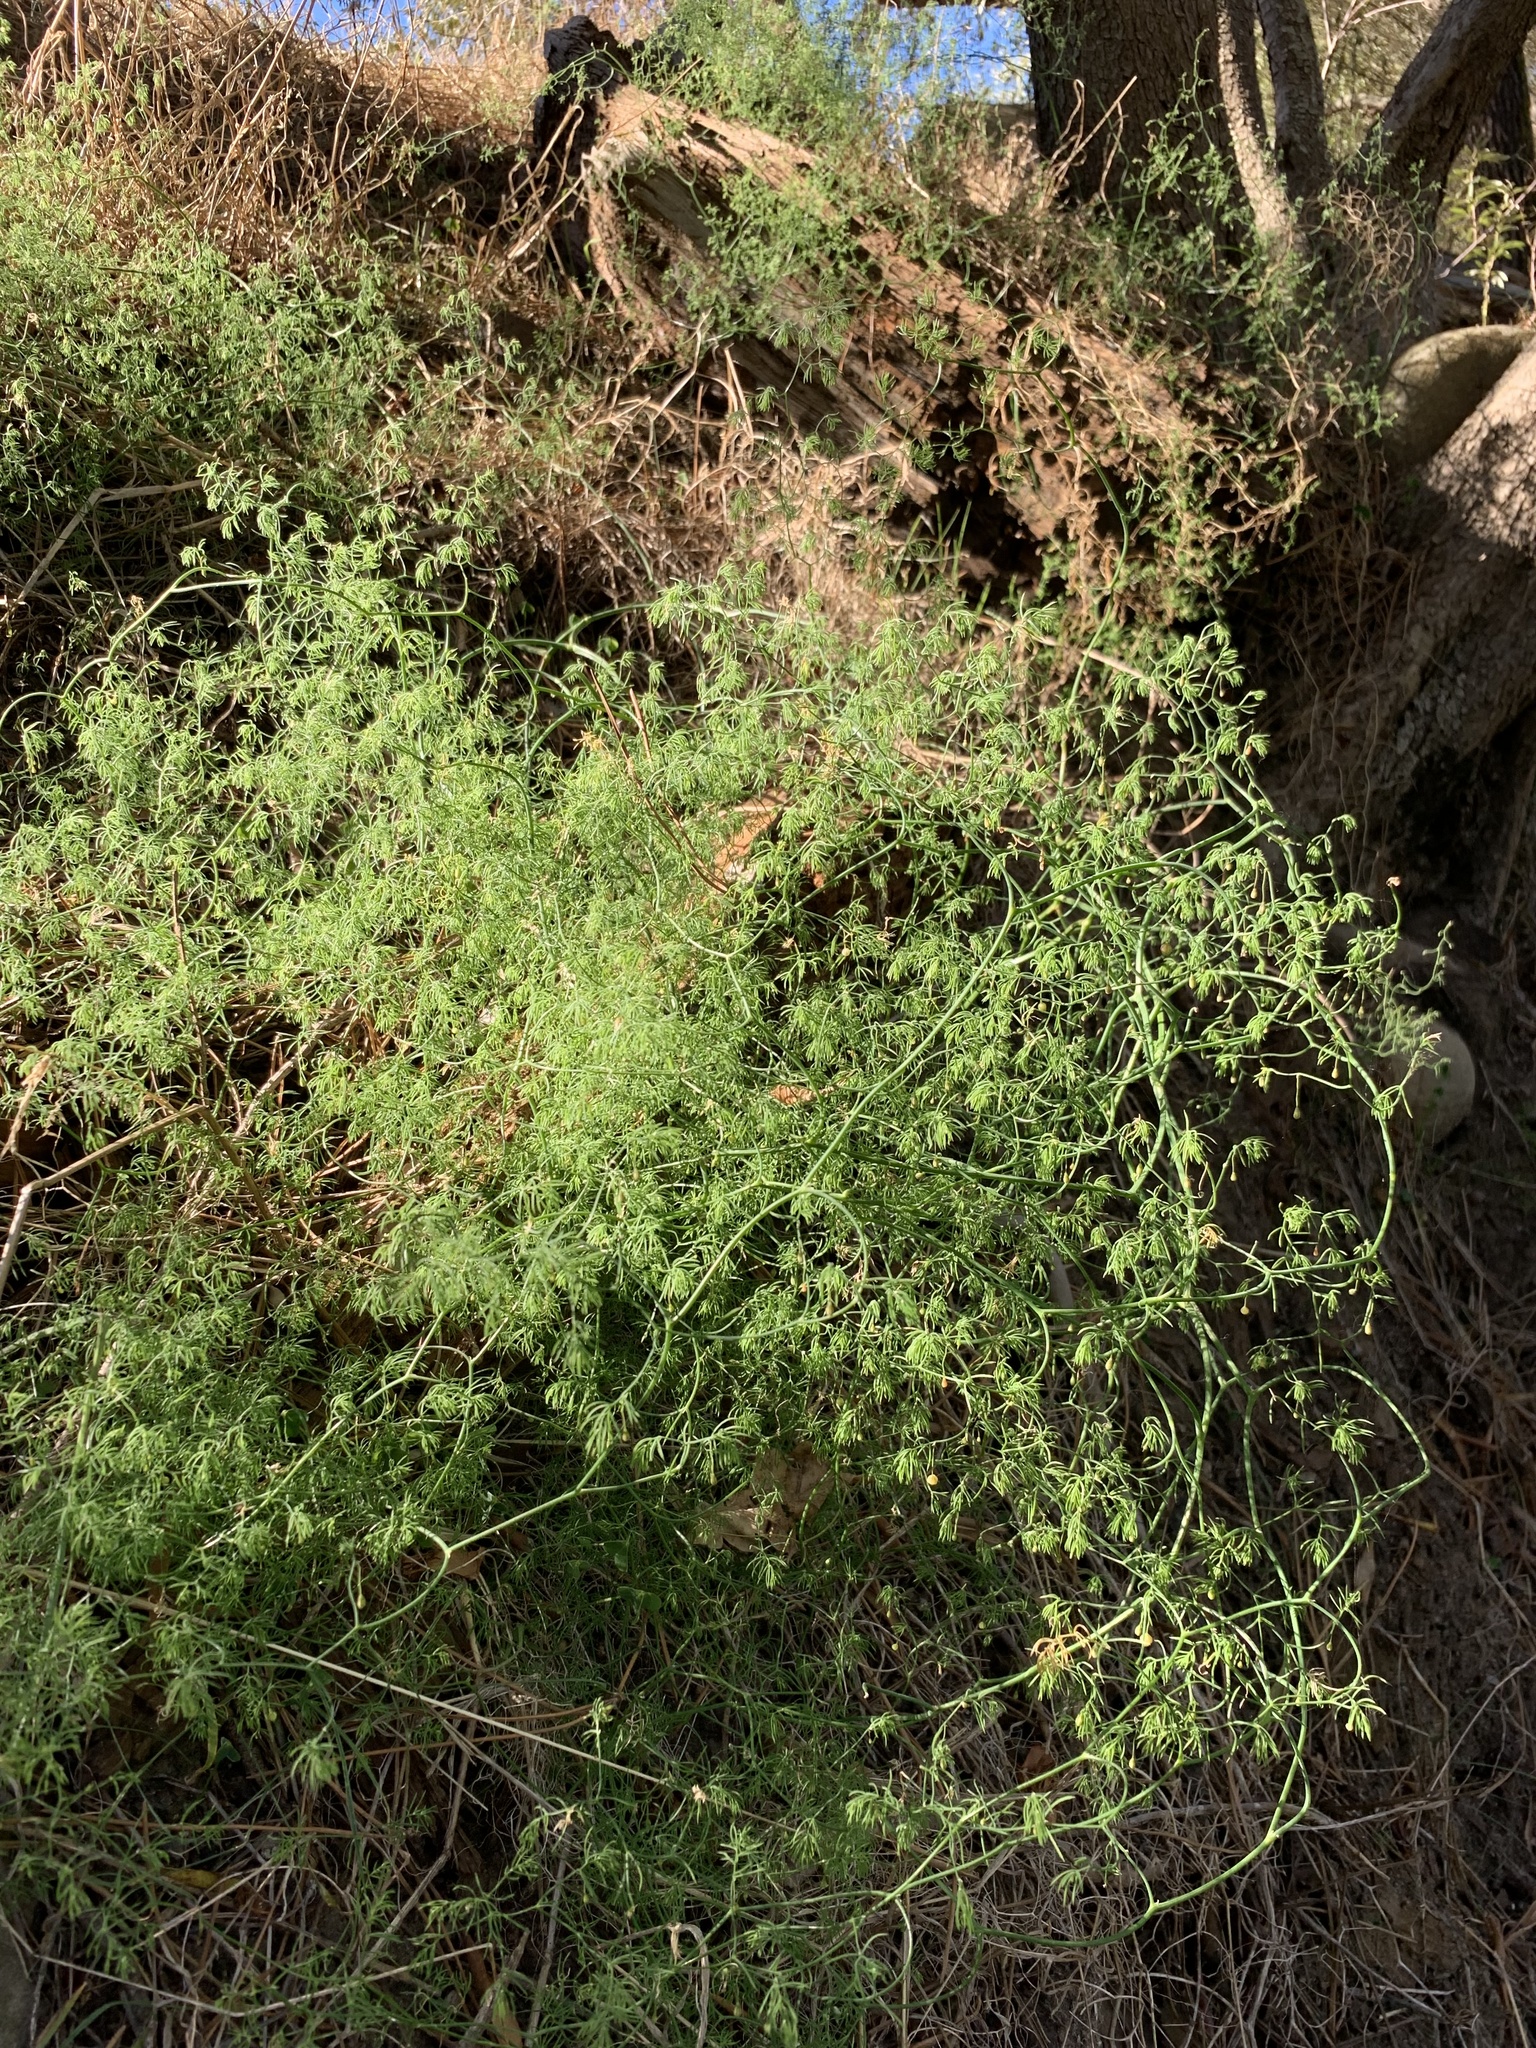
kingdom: Plantae
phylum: Tracheophyta
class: Liliopsida
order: Asparagales
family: Asparagaceae
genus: Asparagus
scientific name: Asparagus declinatus
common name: Bridal-creeper
